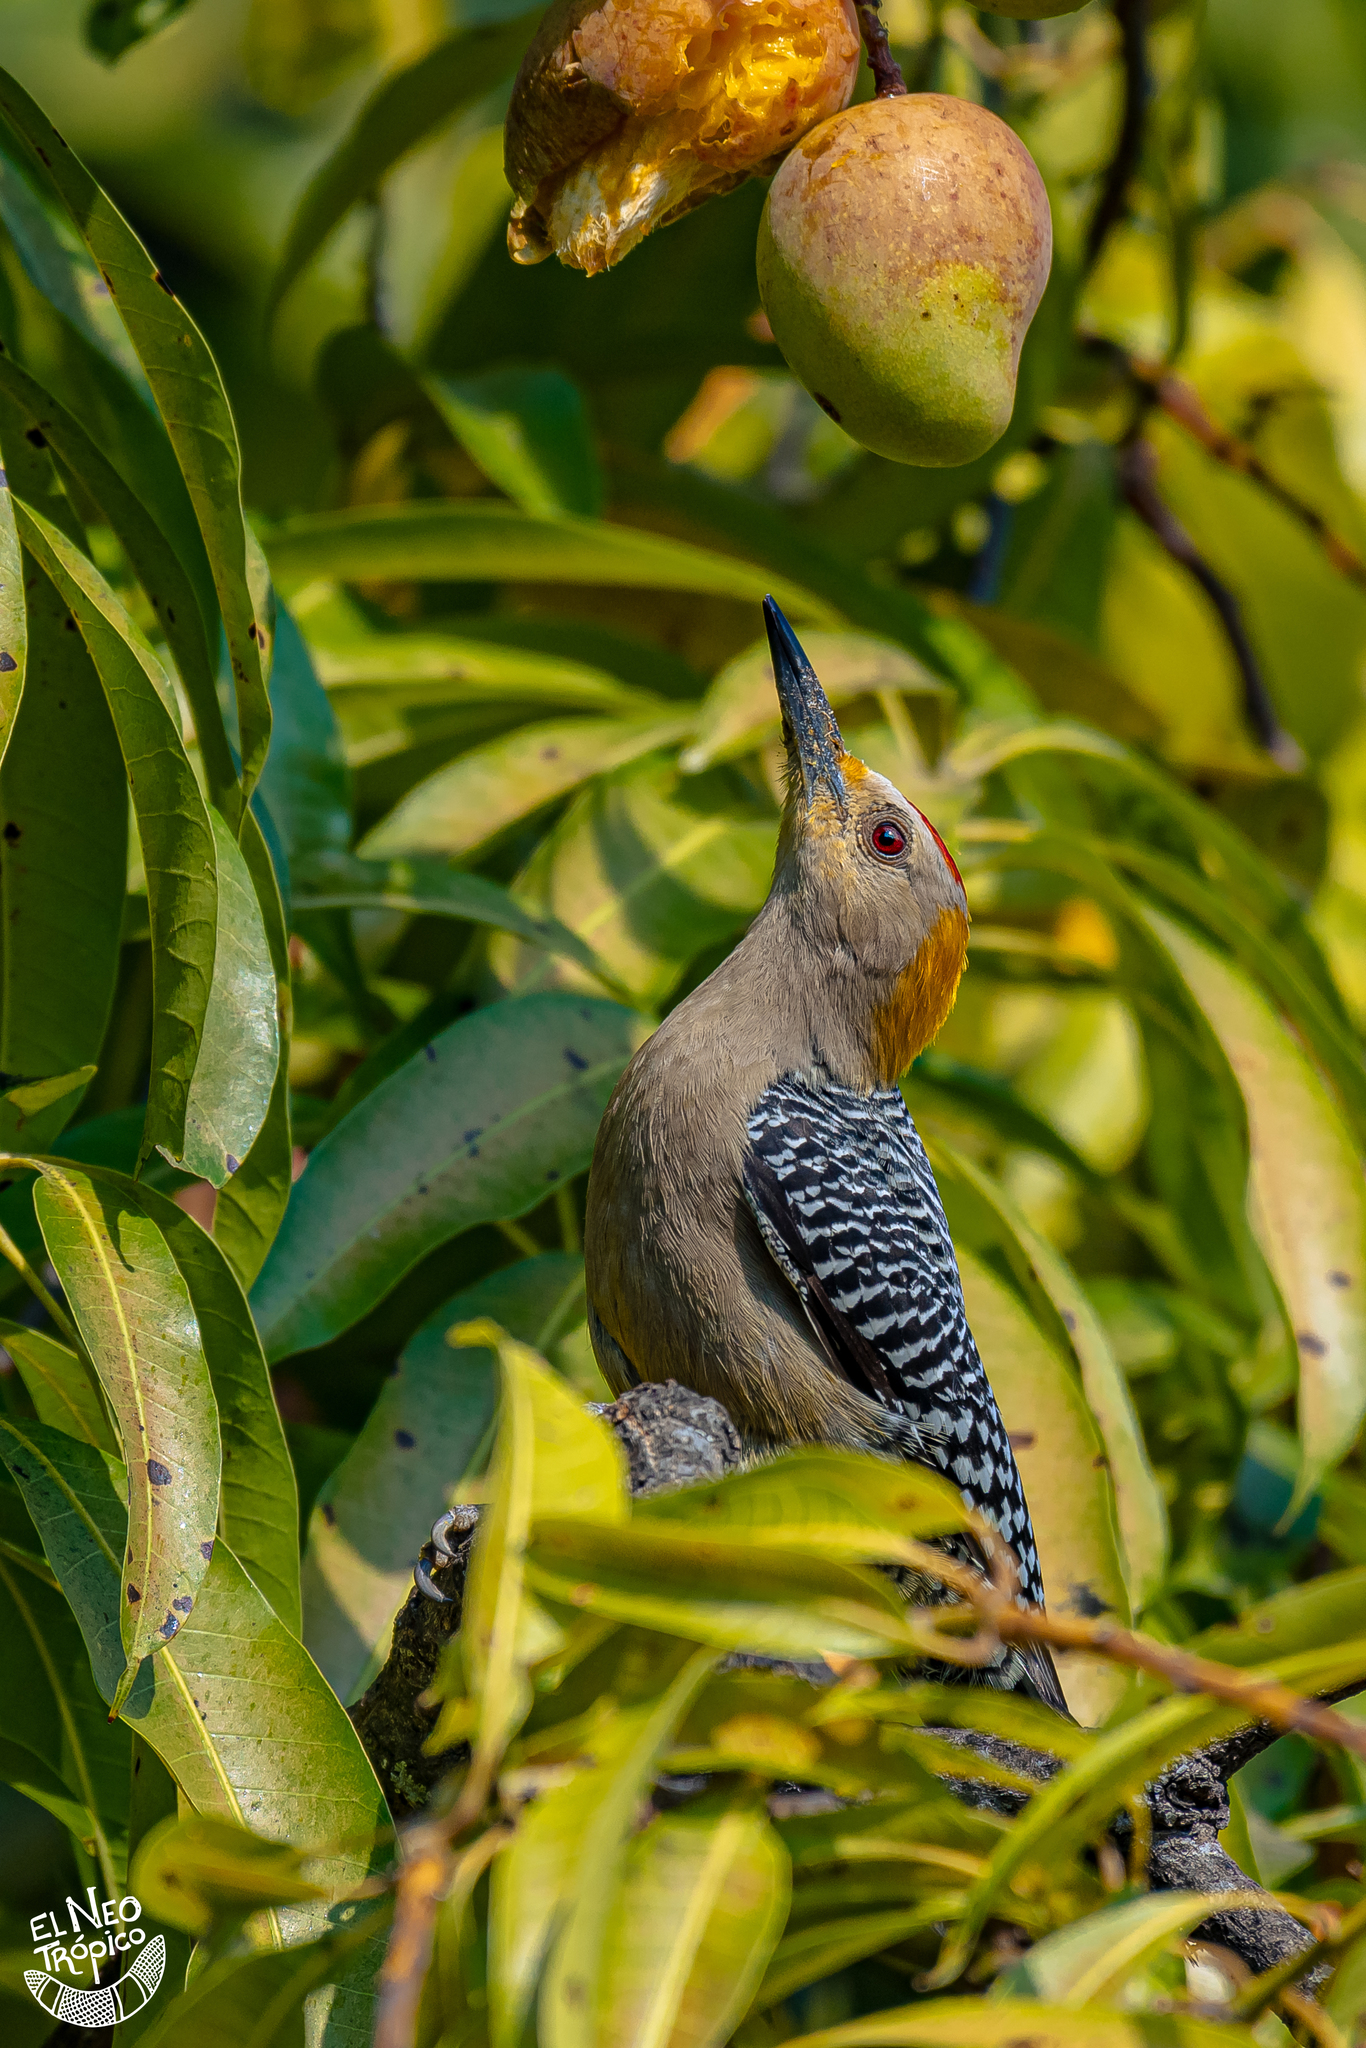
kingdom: Animalia
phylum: Chordata
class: Aves
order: Piciformes
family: Picidae
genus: Melanerpes
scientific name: Melanerpes aurifrons
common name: Golden-fronted woodpecker
